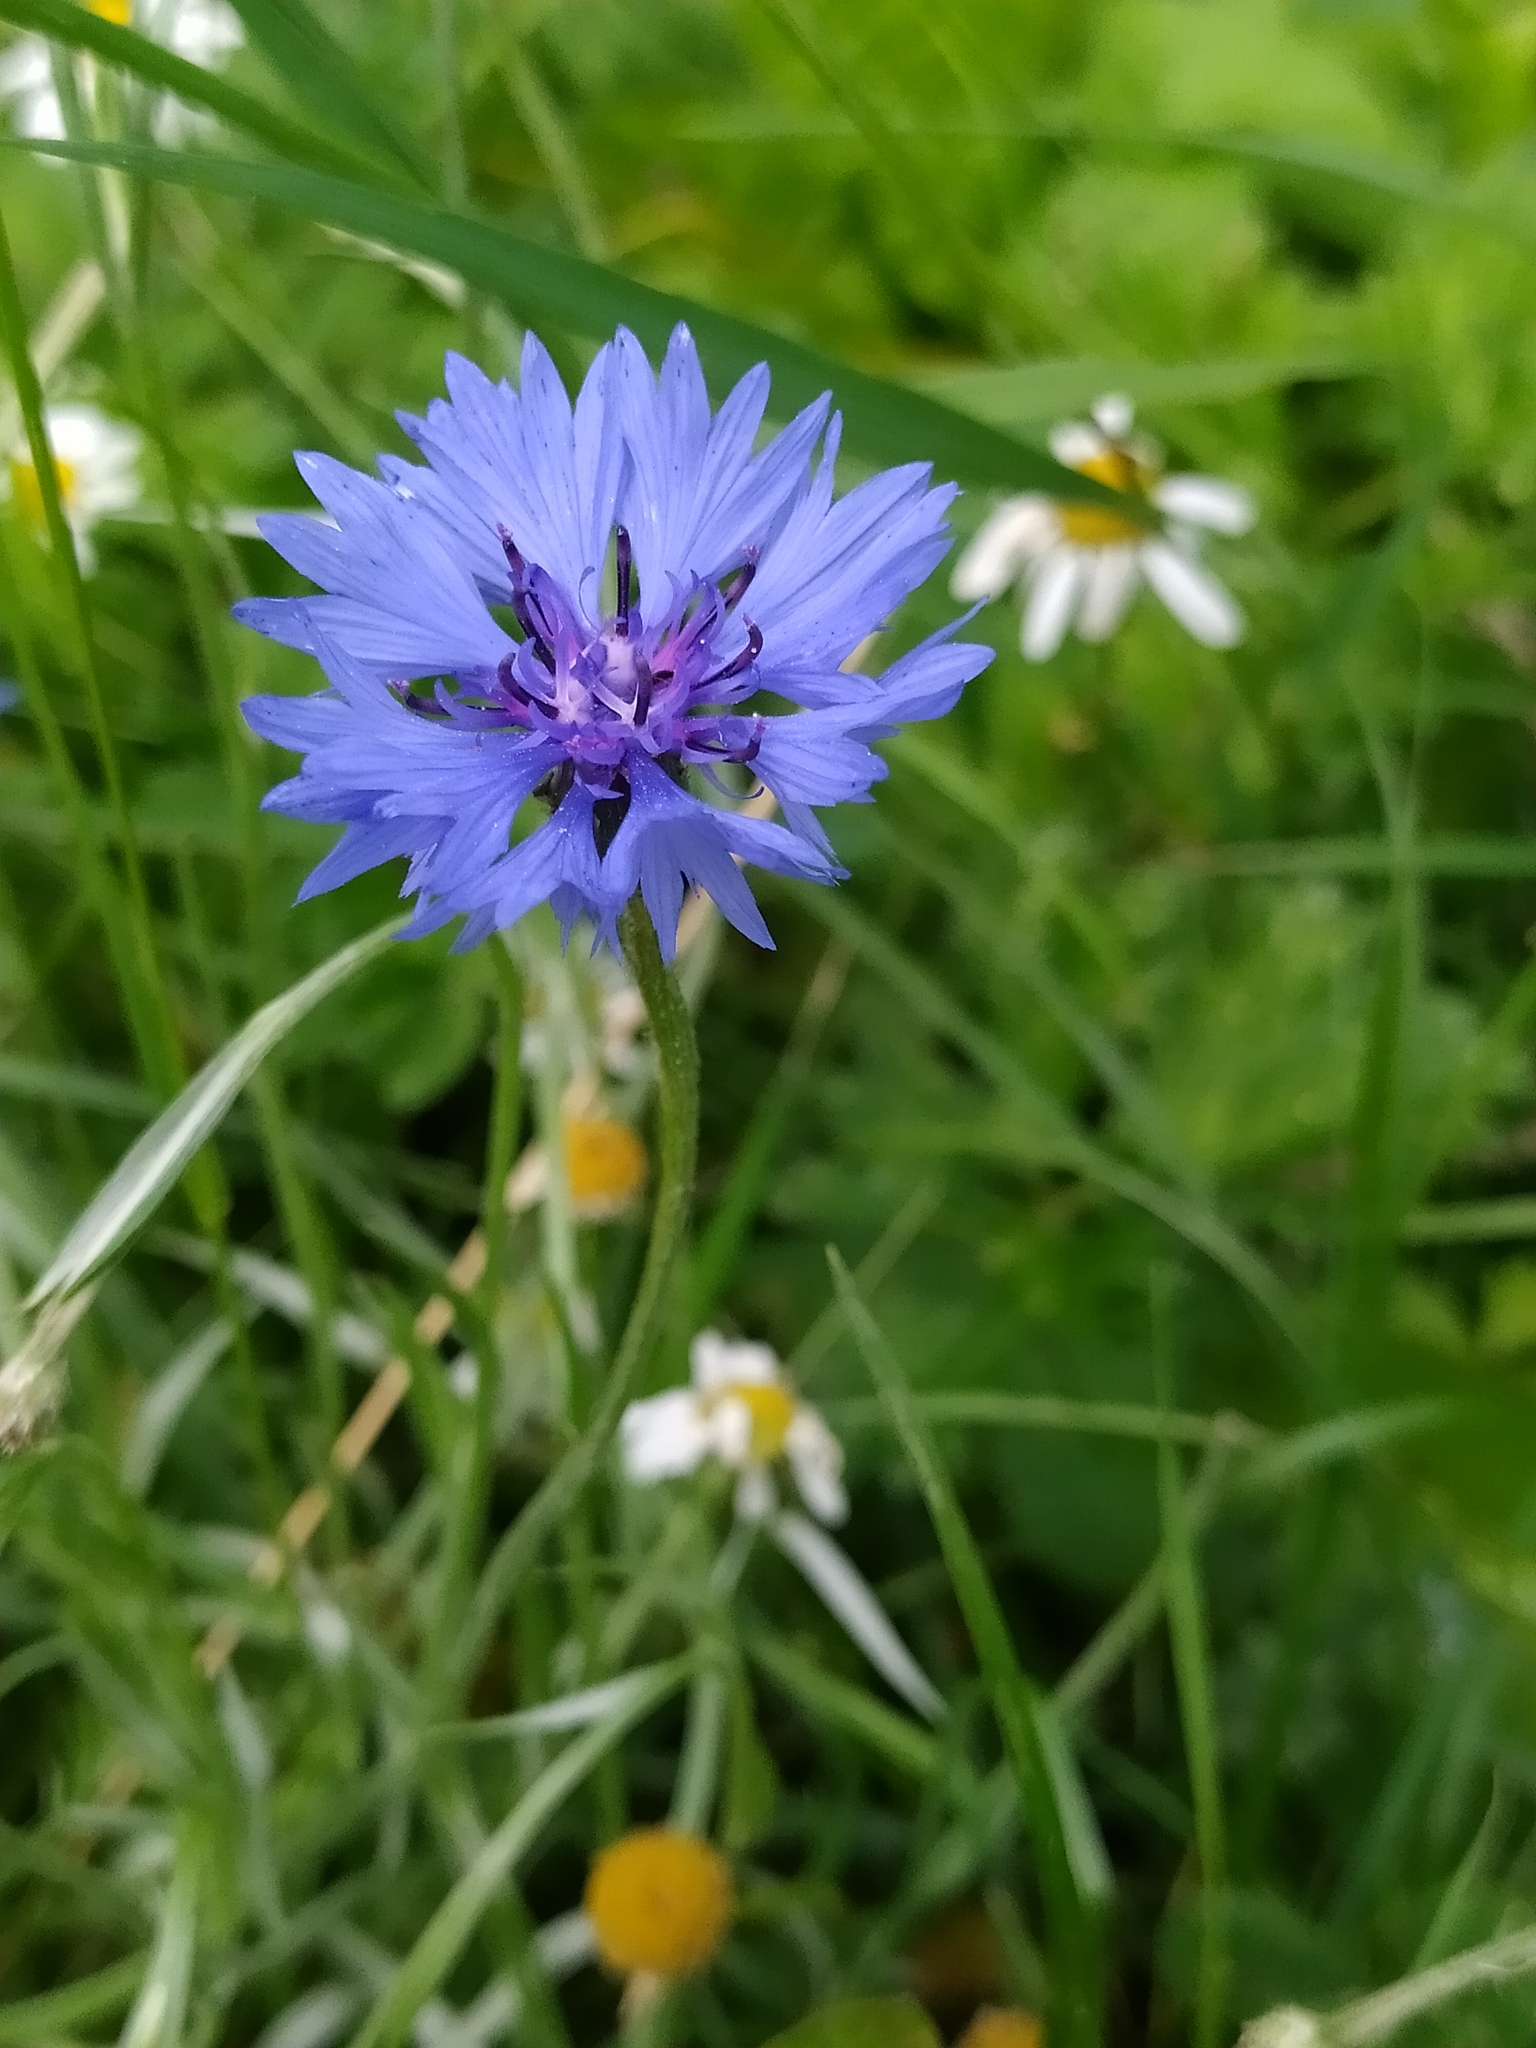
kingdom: Plantae
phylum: Tracheophyta
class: Magnoliopsida
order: Asterales
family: Asteraceae
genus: Centaurea
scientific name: Centaurea cyanus
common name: Cornflower
